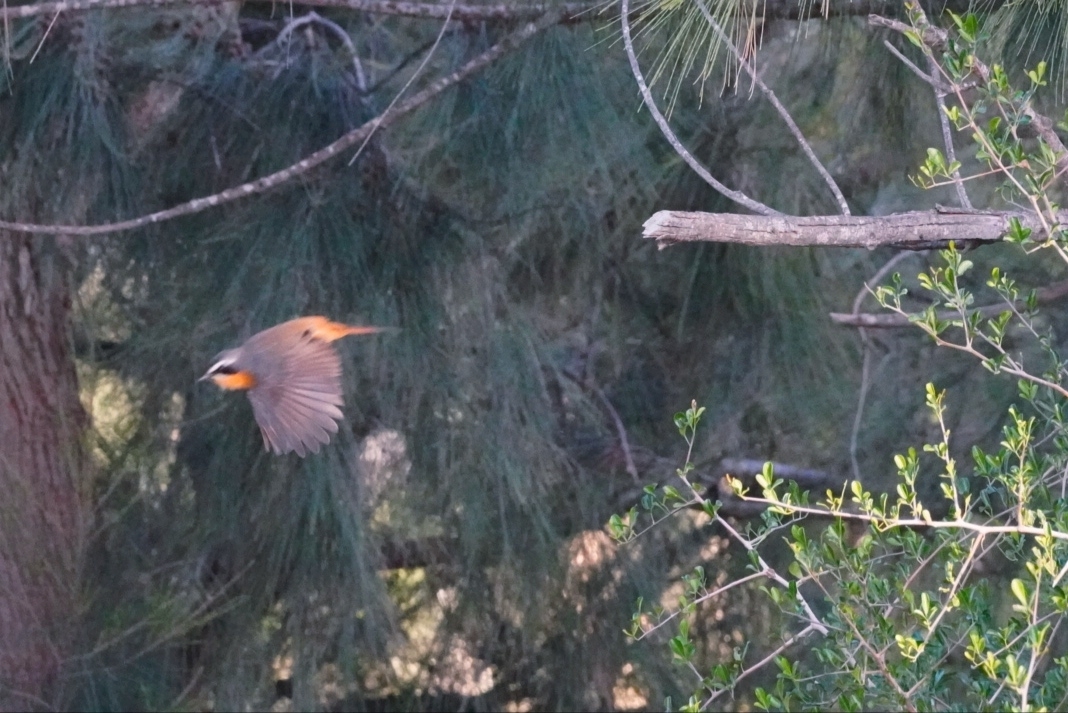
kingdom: Animalia
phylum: Chordata
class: Aves
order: Passeriformes
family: Muscicapidae
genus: Cossypha
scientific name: Cossypha caffra
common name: Cape robin-chat
